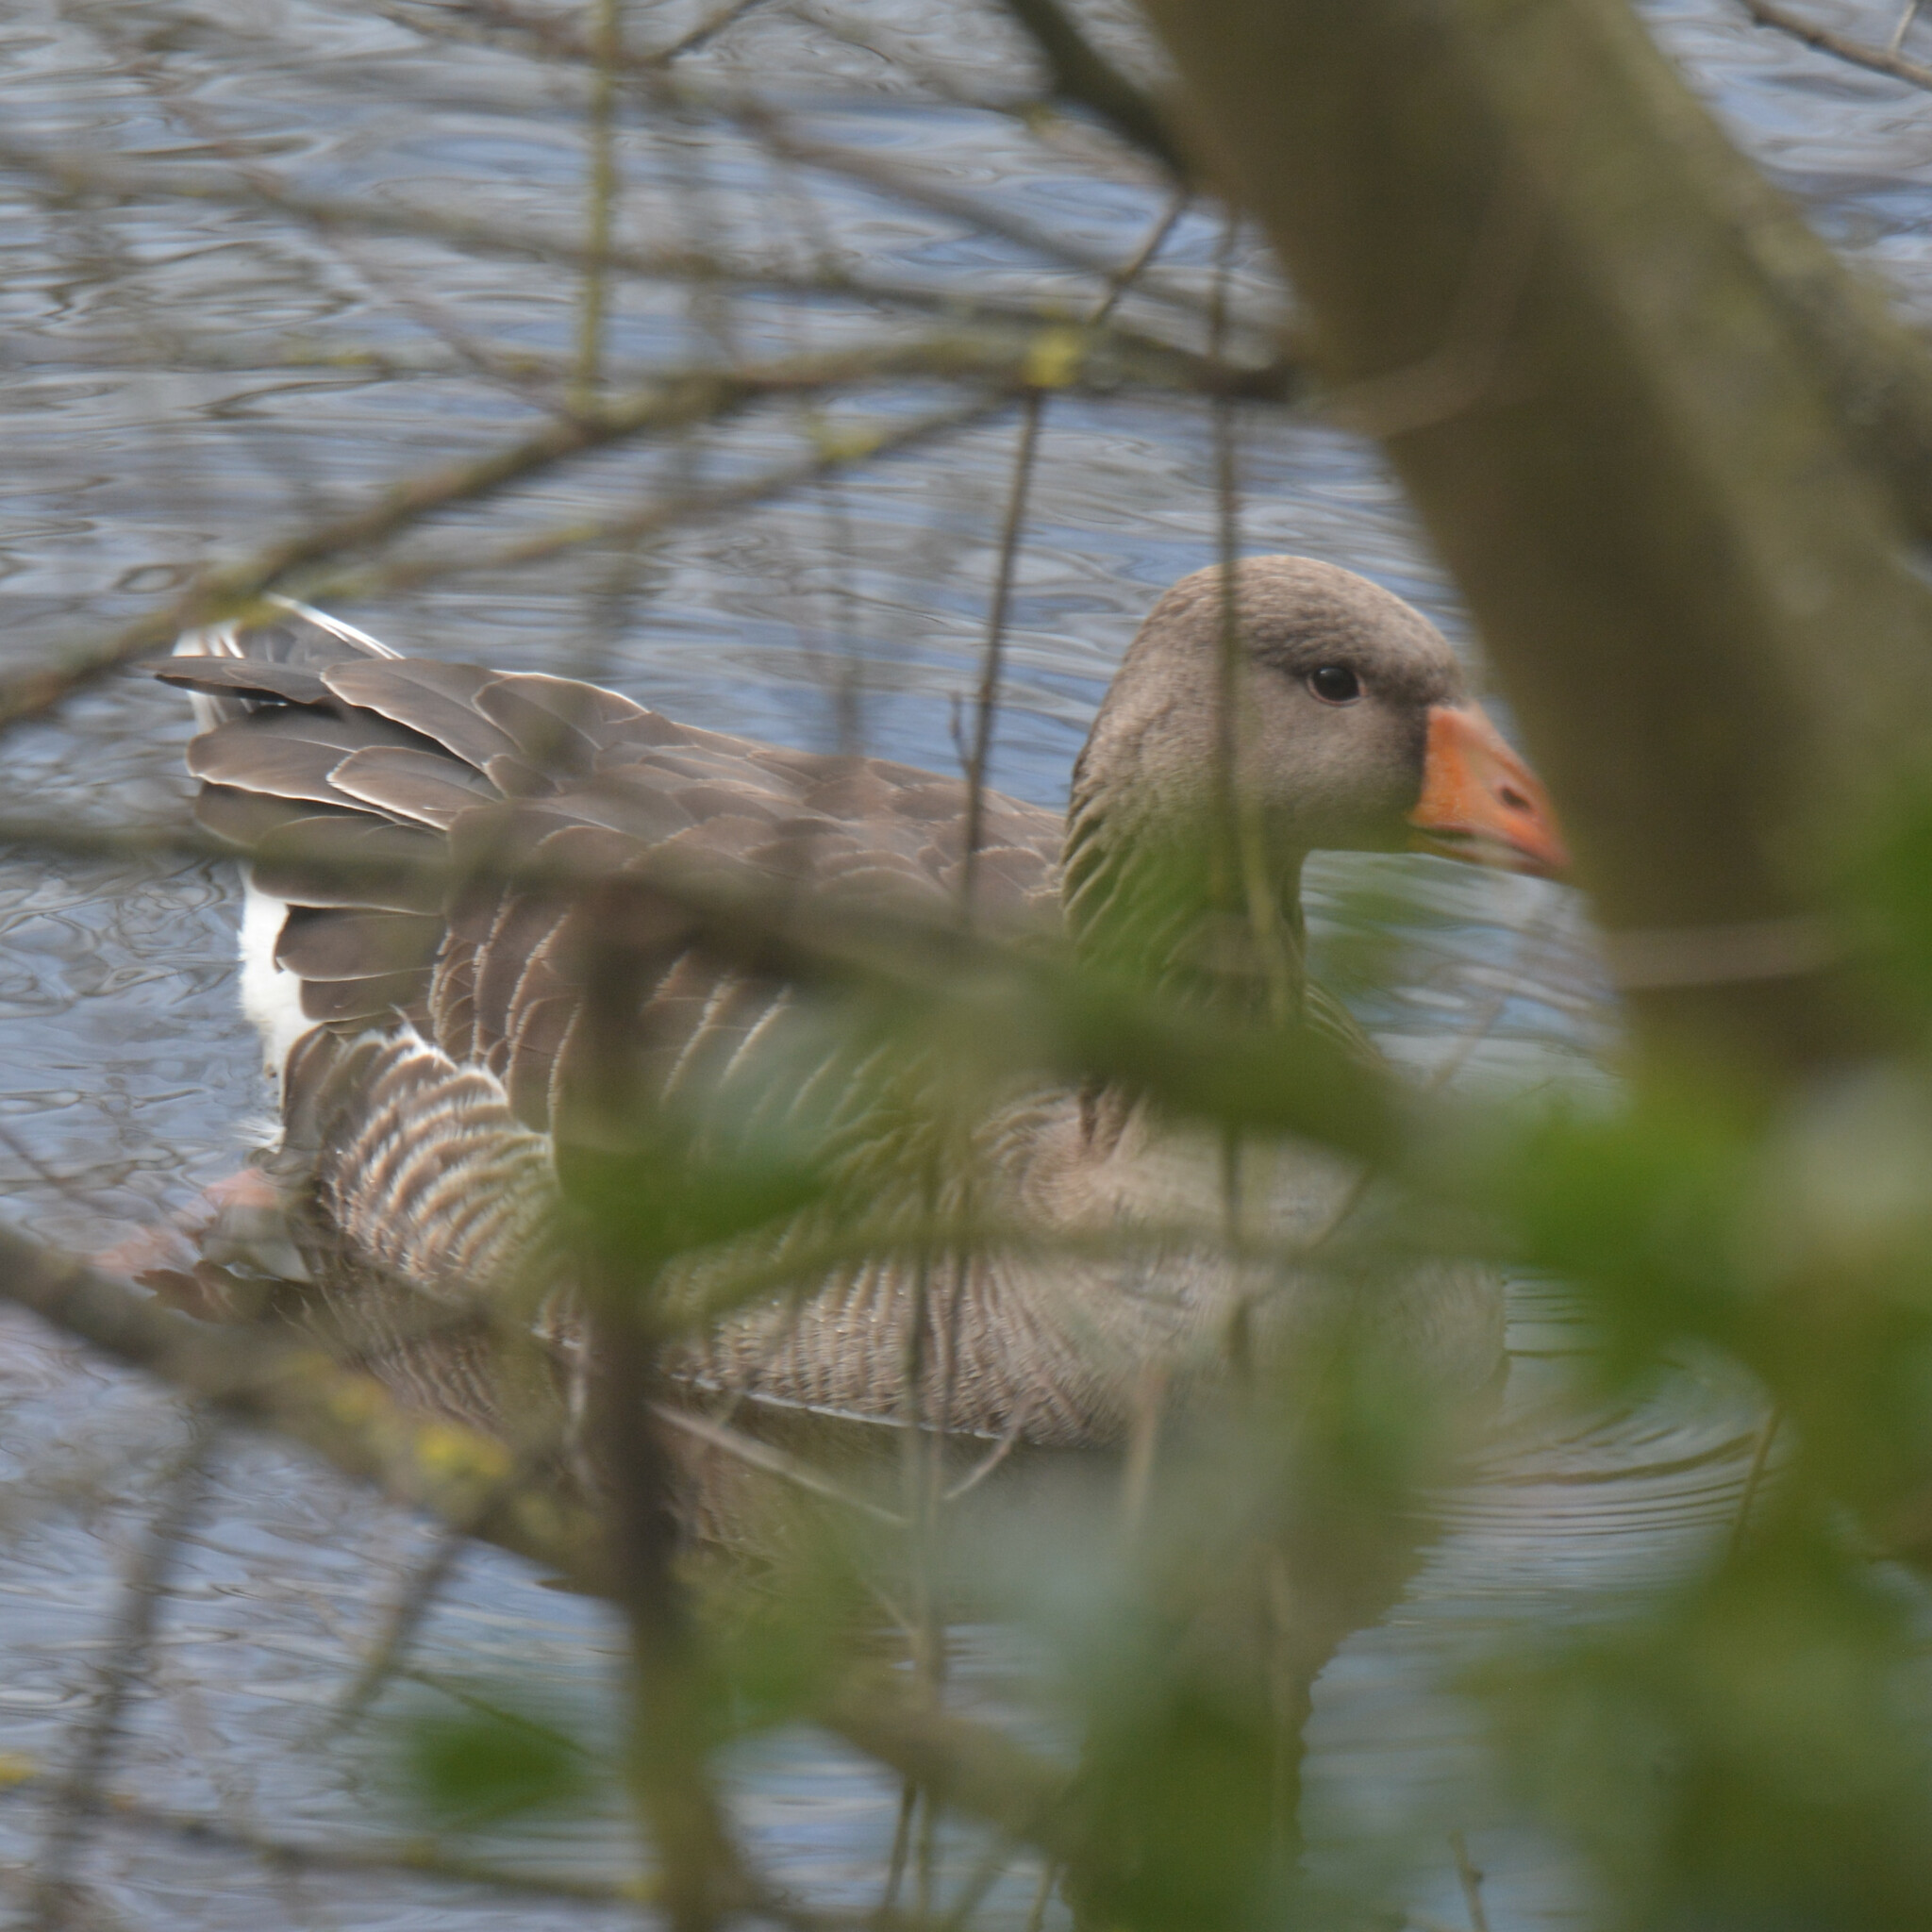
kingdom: Animalia
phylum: Chordata
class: Aves
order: Anseriformes
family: Anatidae
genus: Anser
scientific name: Anser anser
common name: Greylag goose
